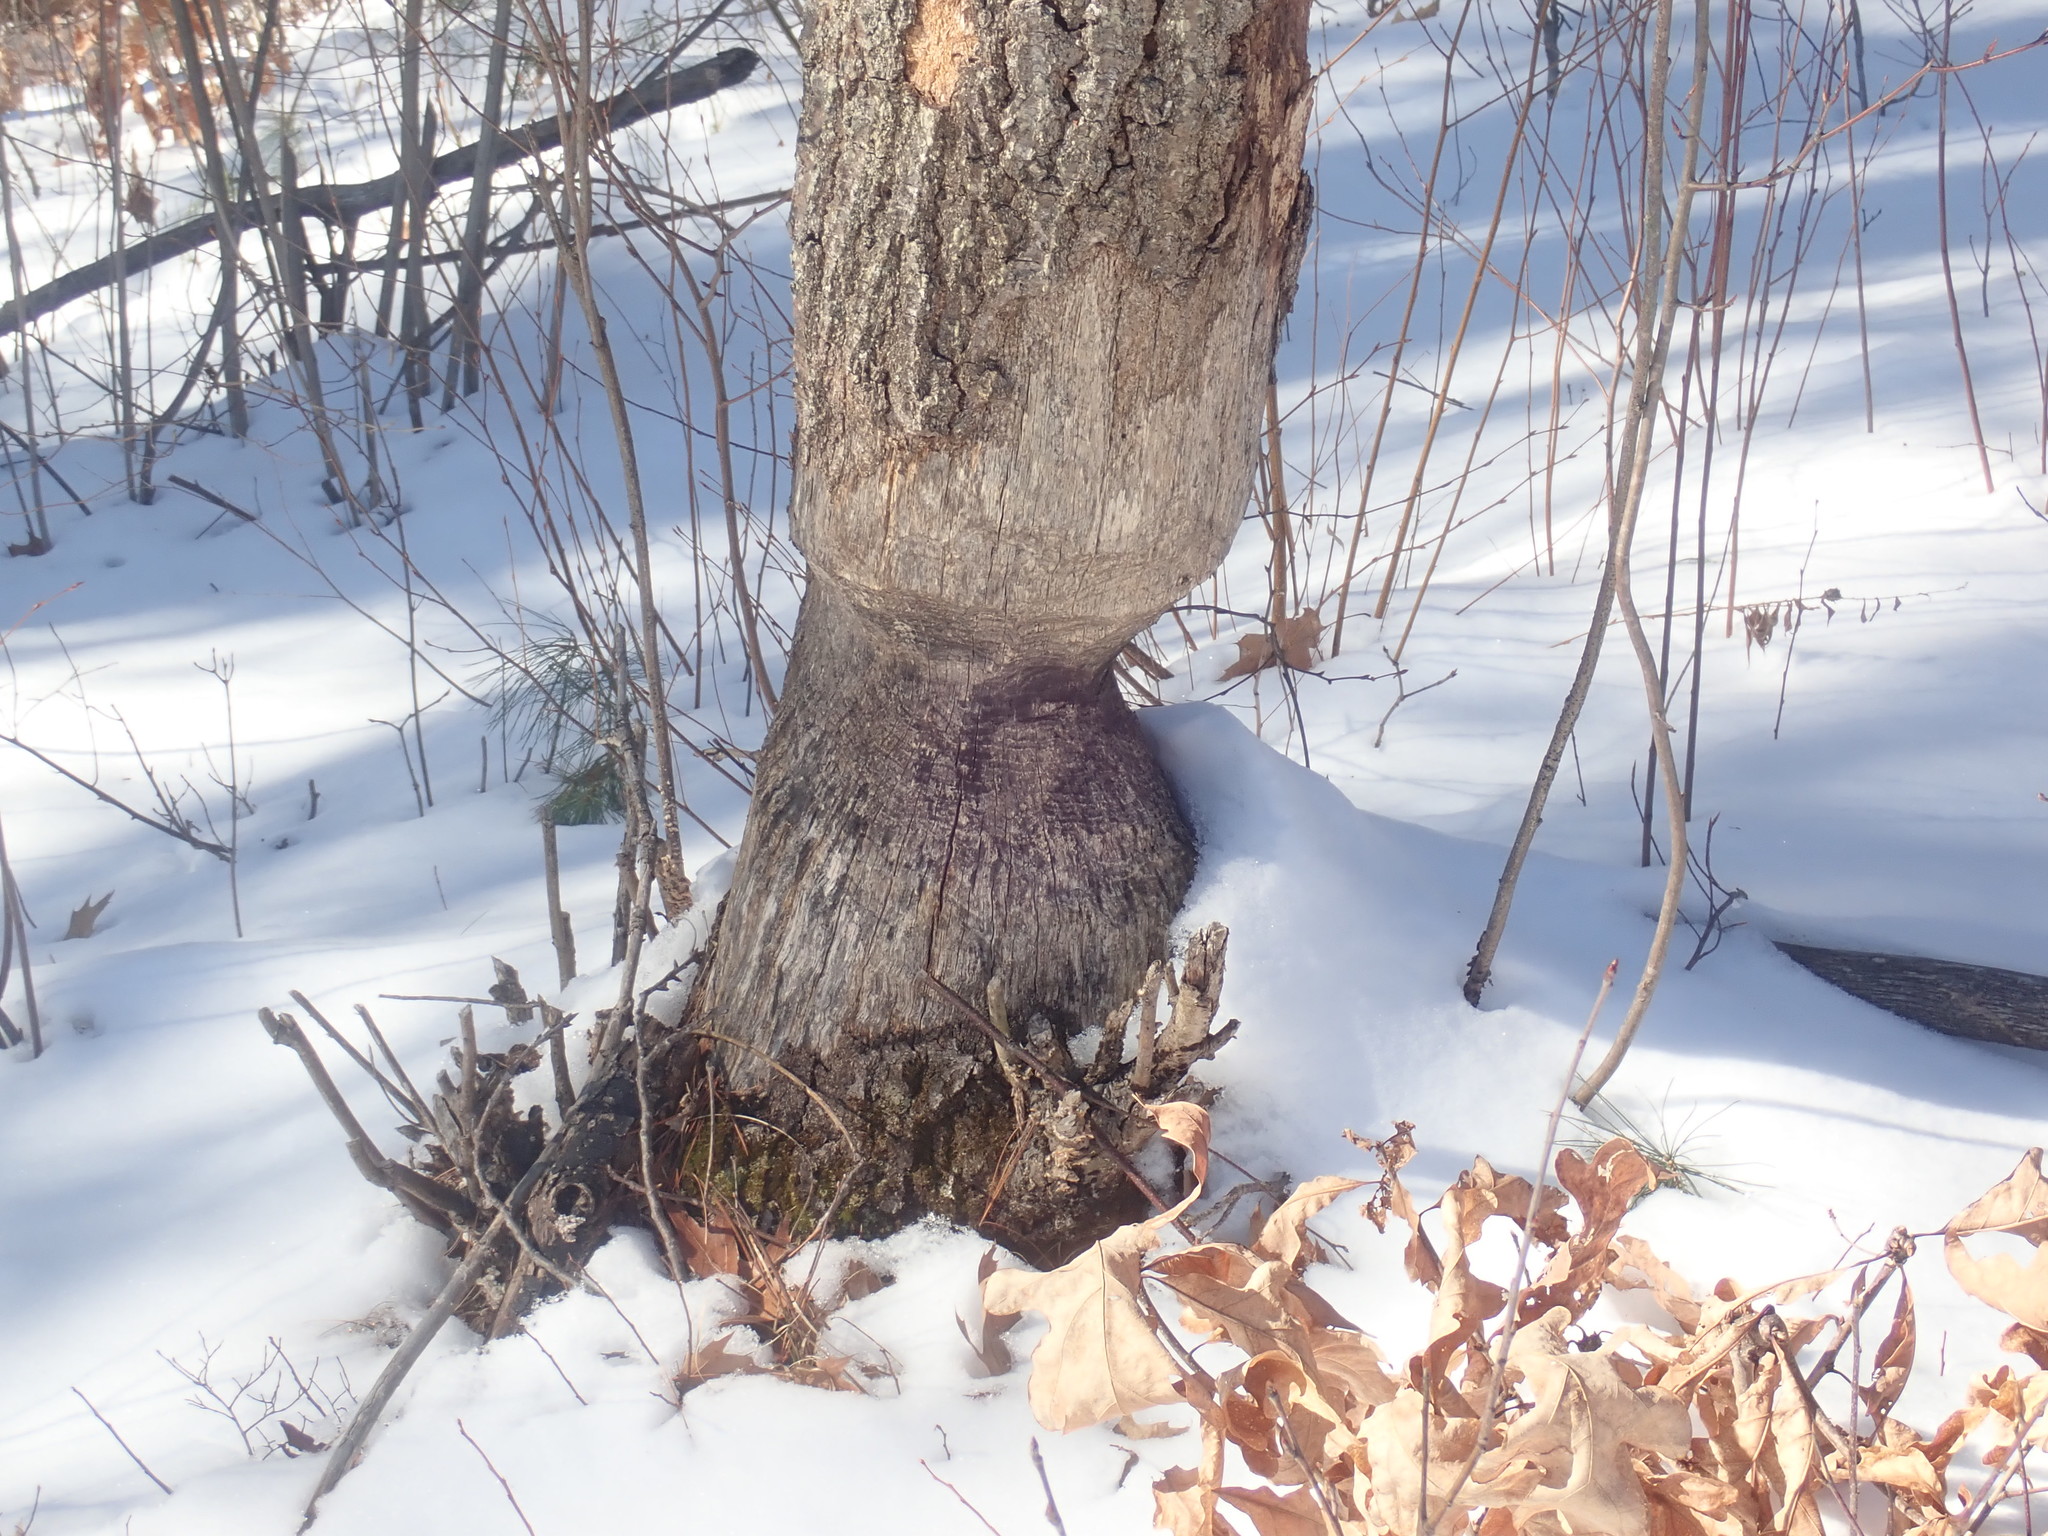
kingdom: Animalia
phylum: Chordata
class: Mammalia
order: Rodentia
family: Castoridae
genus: Castor
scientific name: Castor canadensis
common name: American beaver
